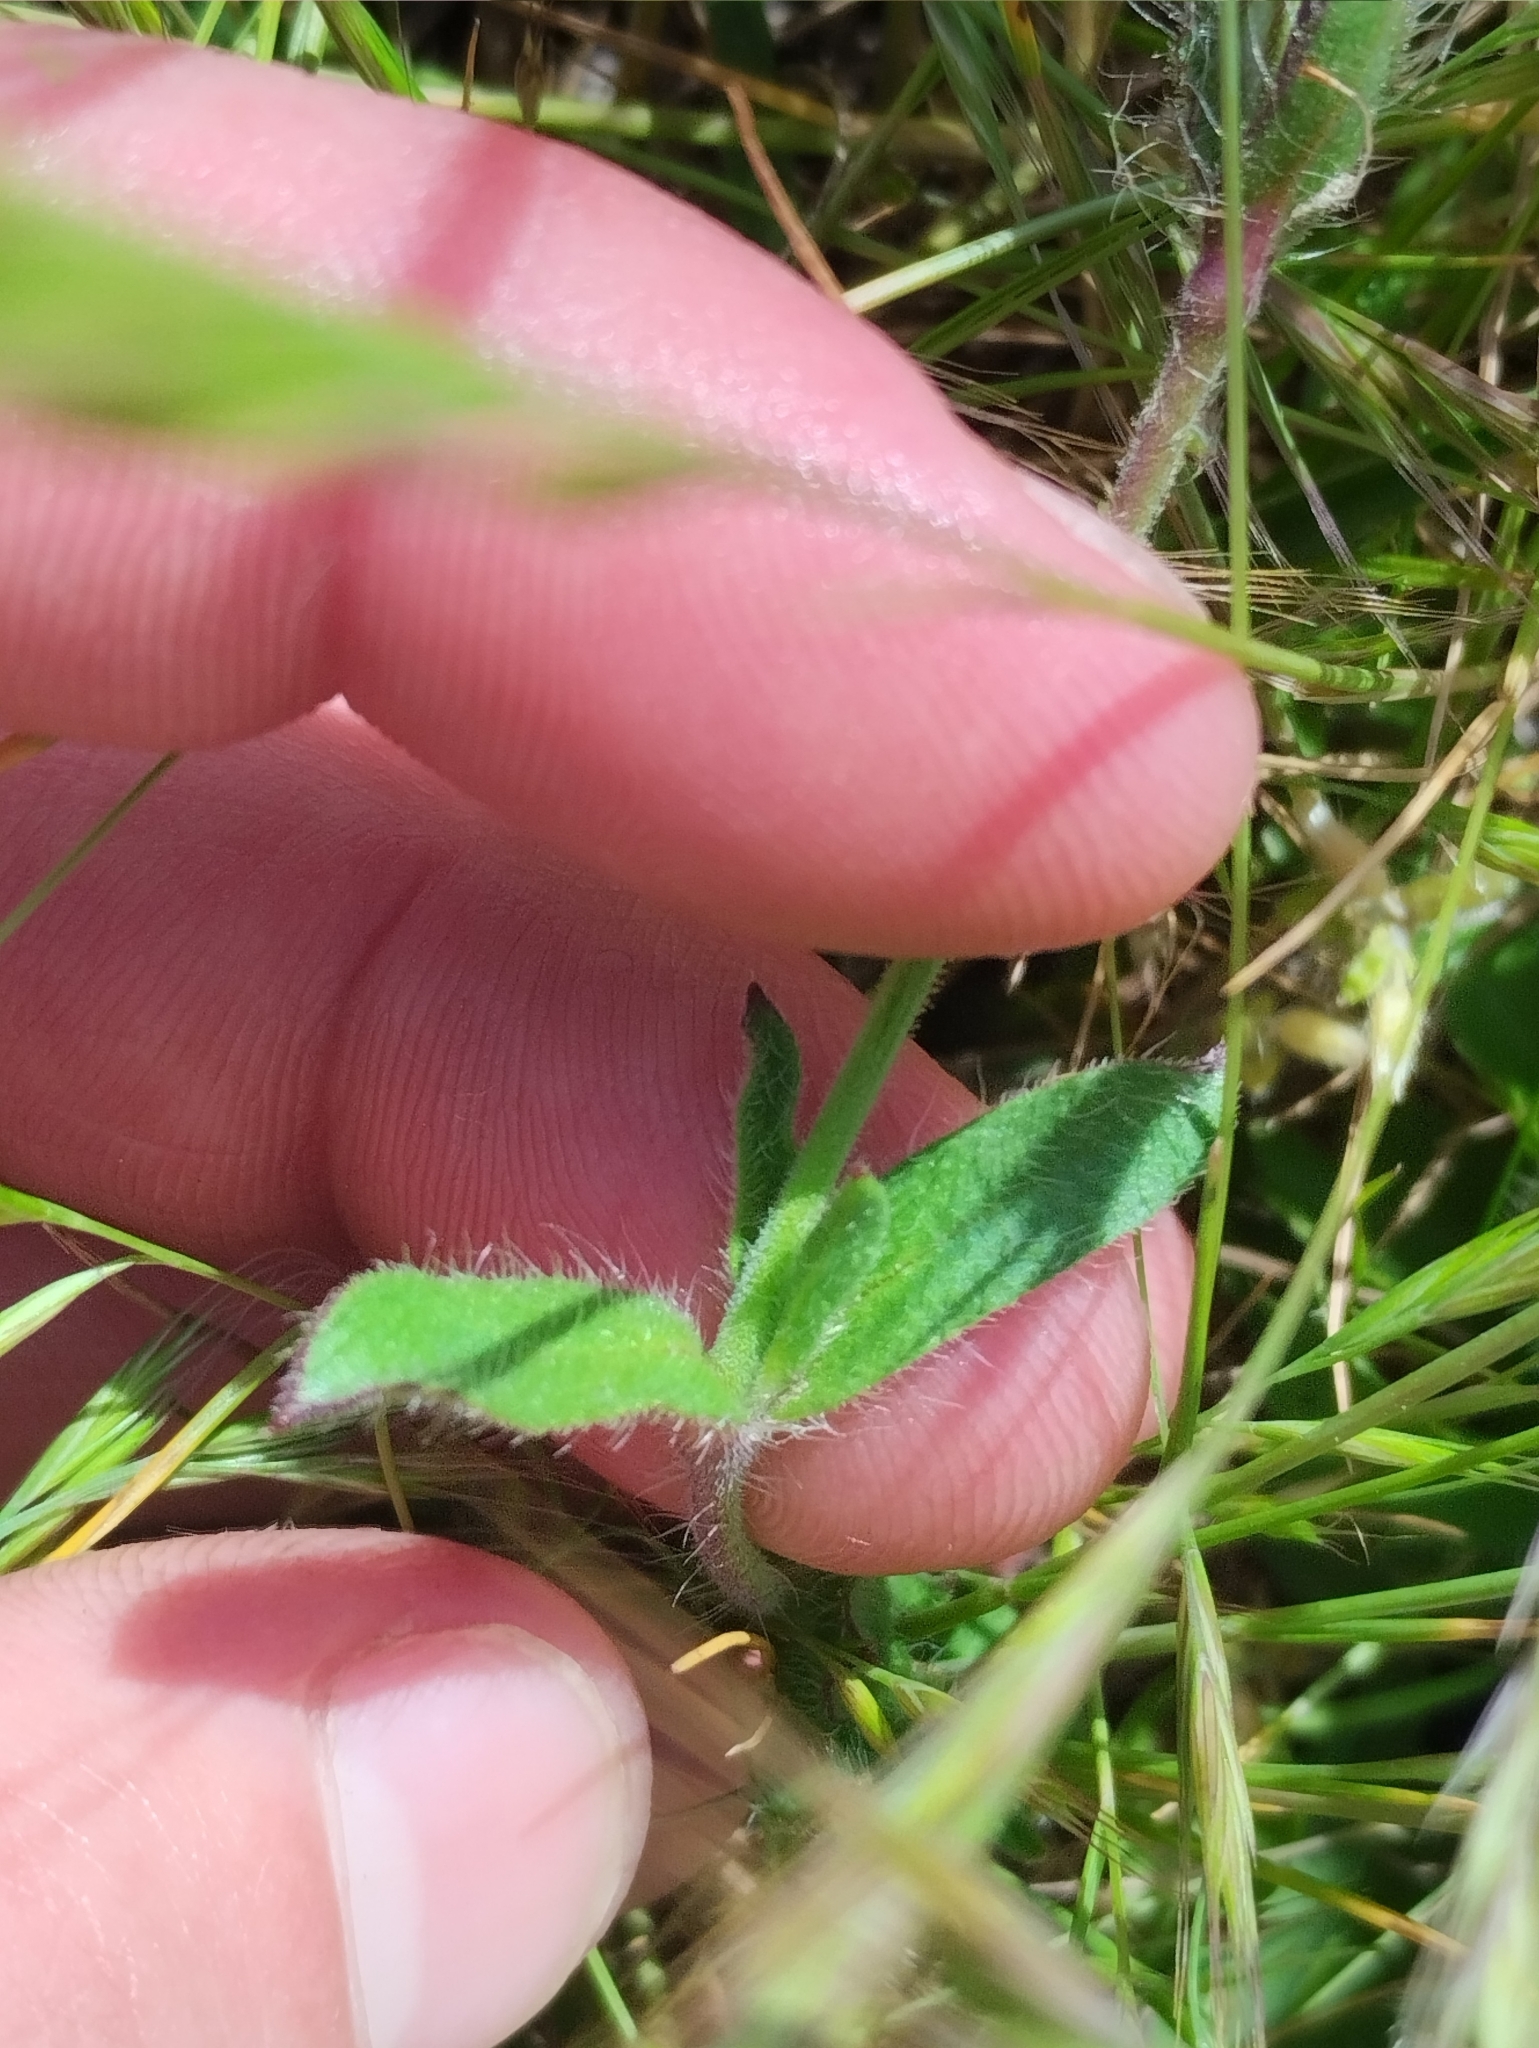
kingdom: Plantae
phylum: Tracheophyta
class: Magnoliopsida
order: Caryophyllales
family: Caryophyllaceae
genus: Silene
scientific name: Silene gallica
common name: Small-flowered catchfly
